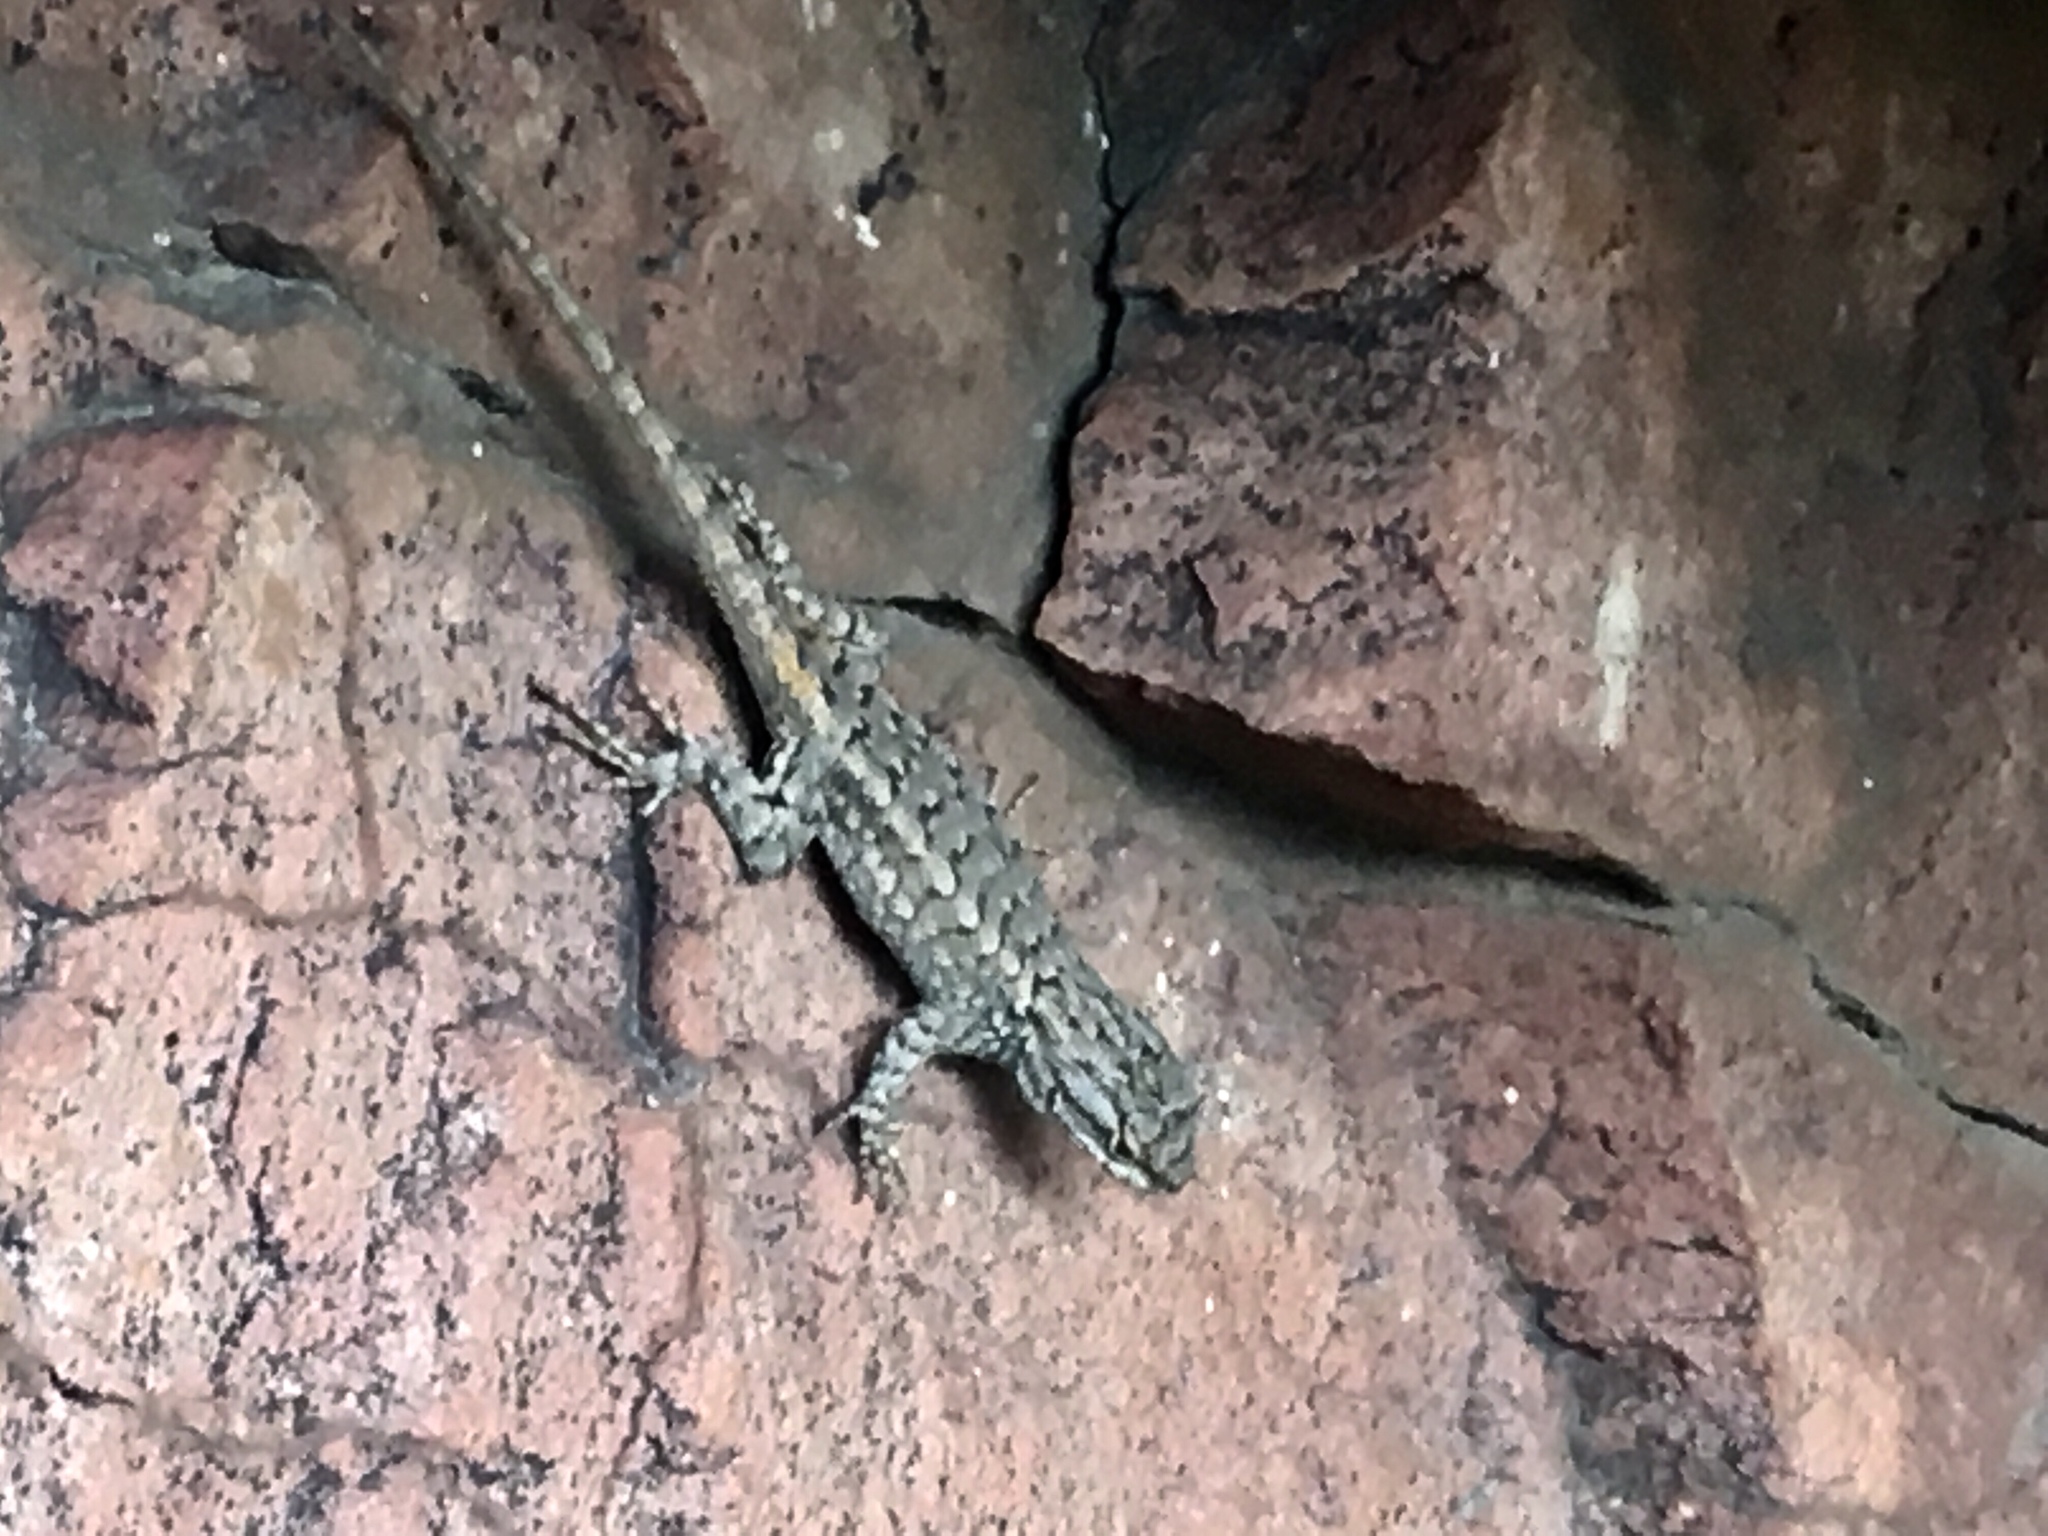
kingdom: Animalia
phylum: Chordata
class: Squamata
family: Phrynosomatidae
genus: Sceloporus
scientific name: Sceloporus consobrinus
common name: Southern prairie lizard
